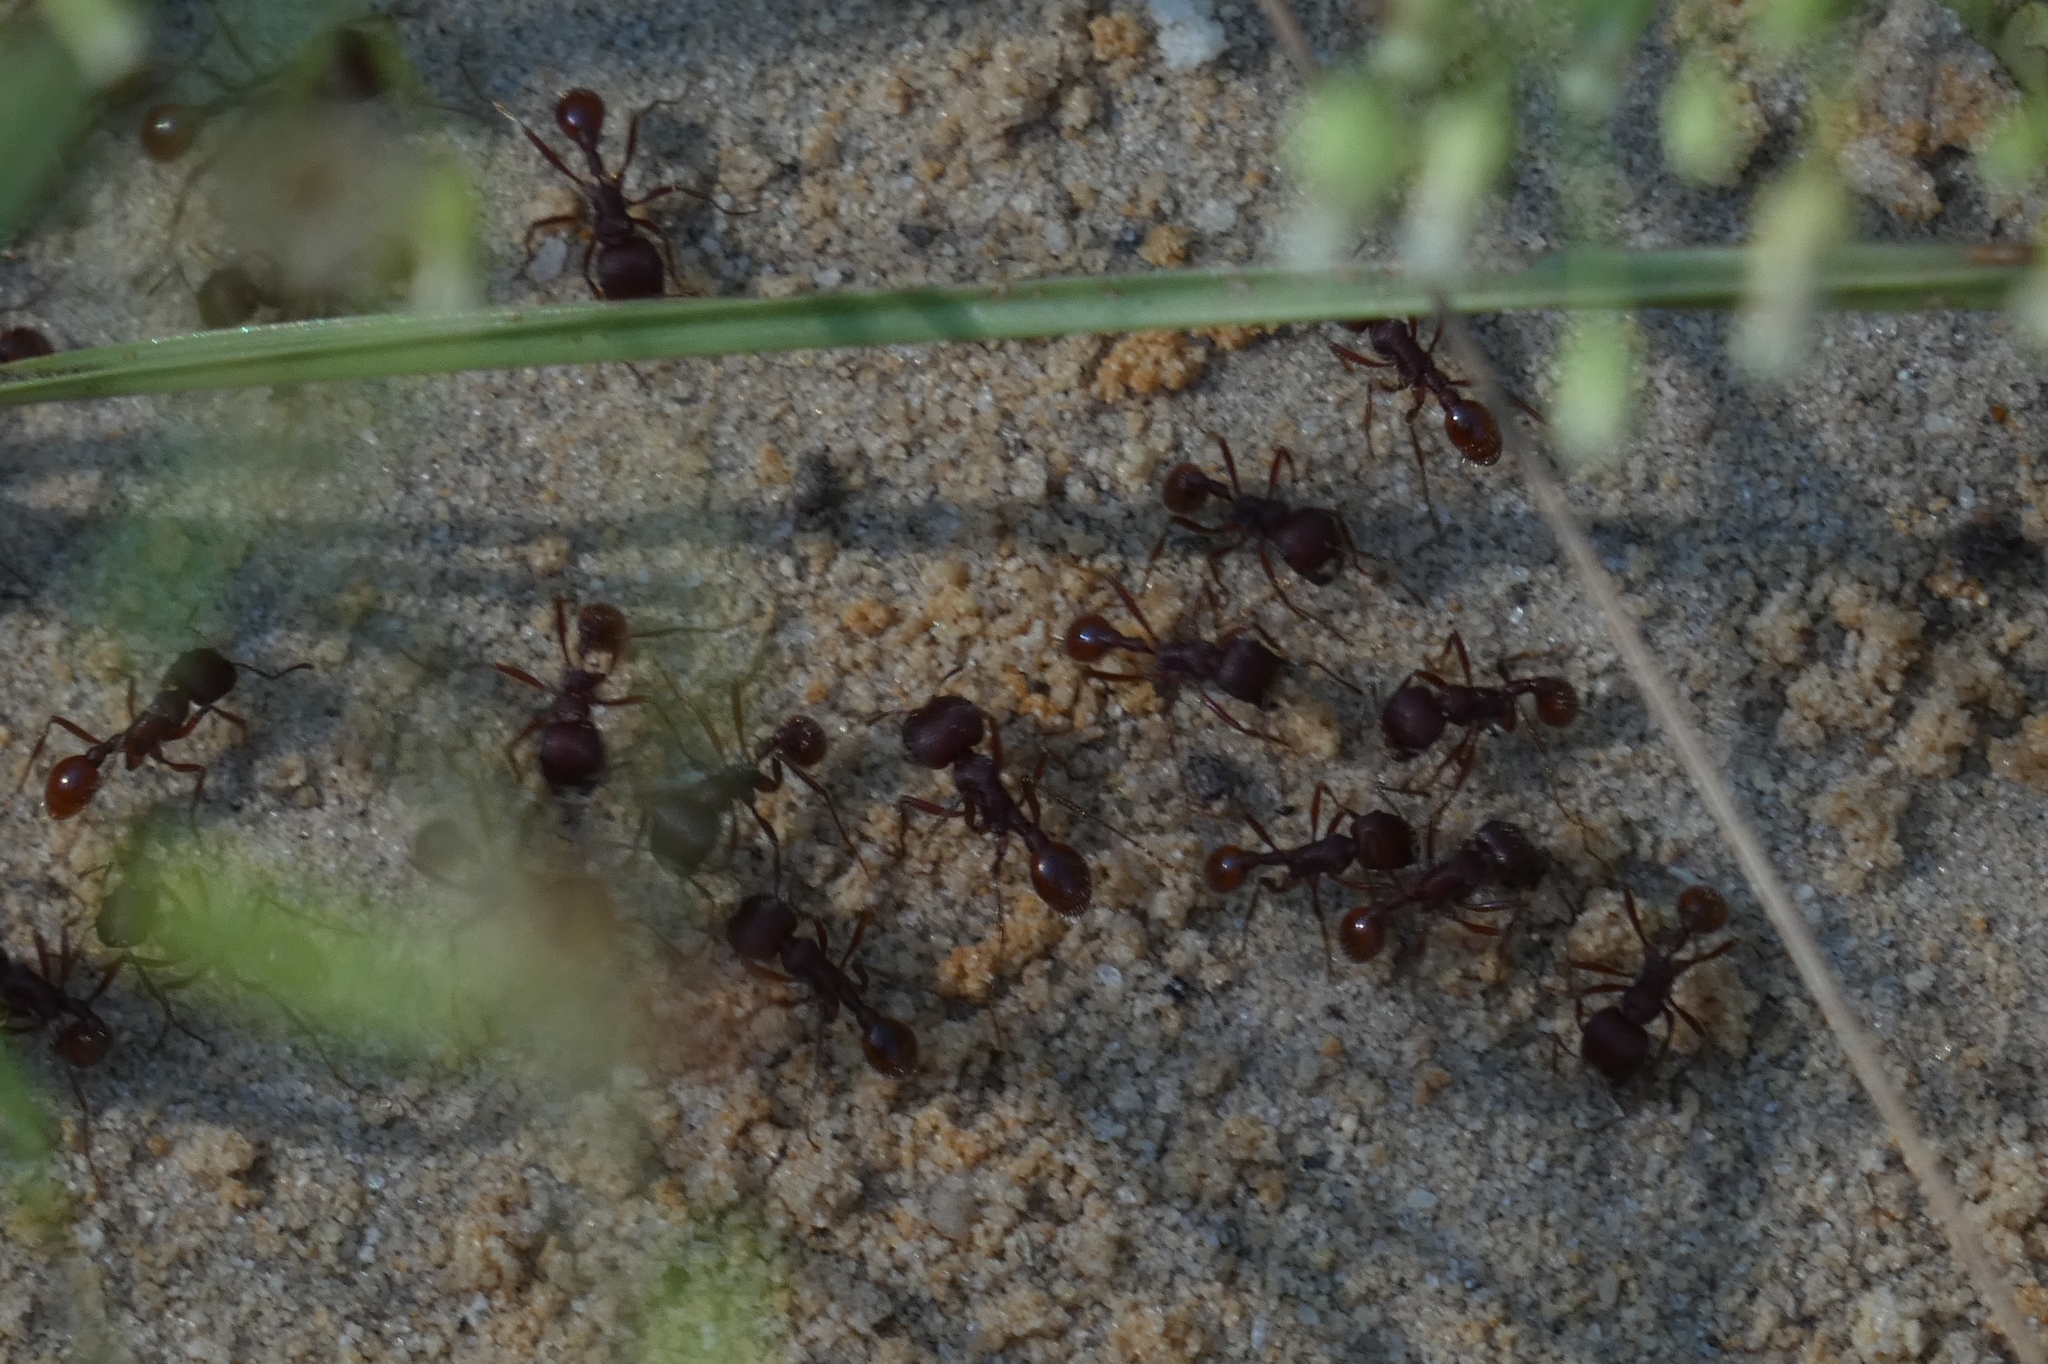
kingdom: Animalia
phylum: Arthropoda
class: Insecta
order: Hymenoptera
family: Formicidae
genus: Pogonomyrmex
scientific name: Pogonomyrmex badius
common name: Florida harvester ant
